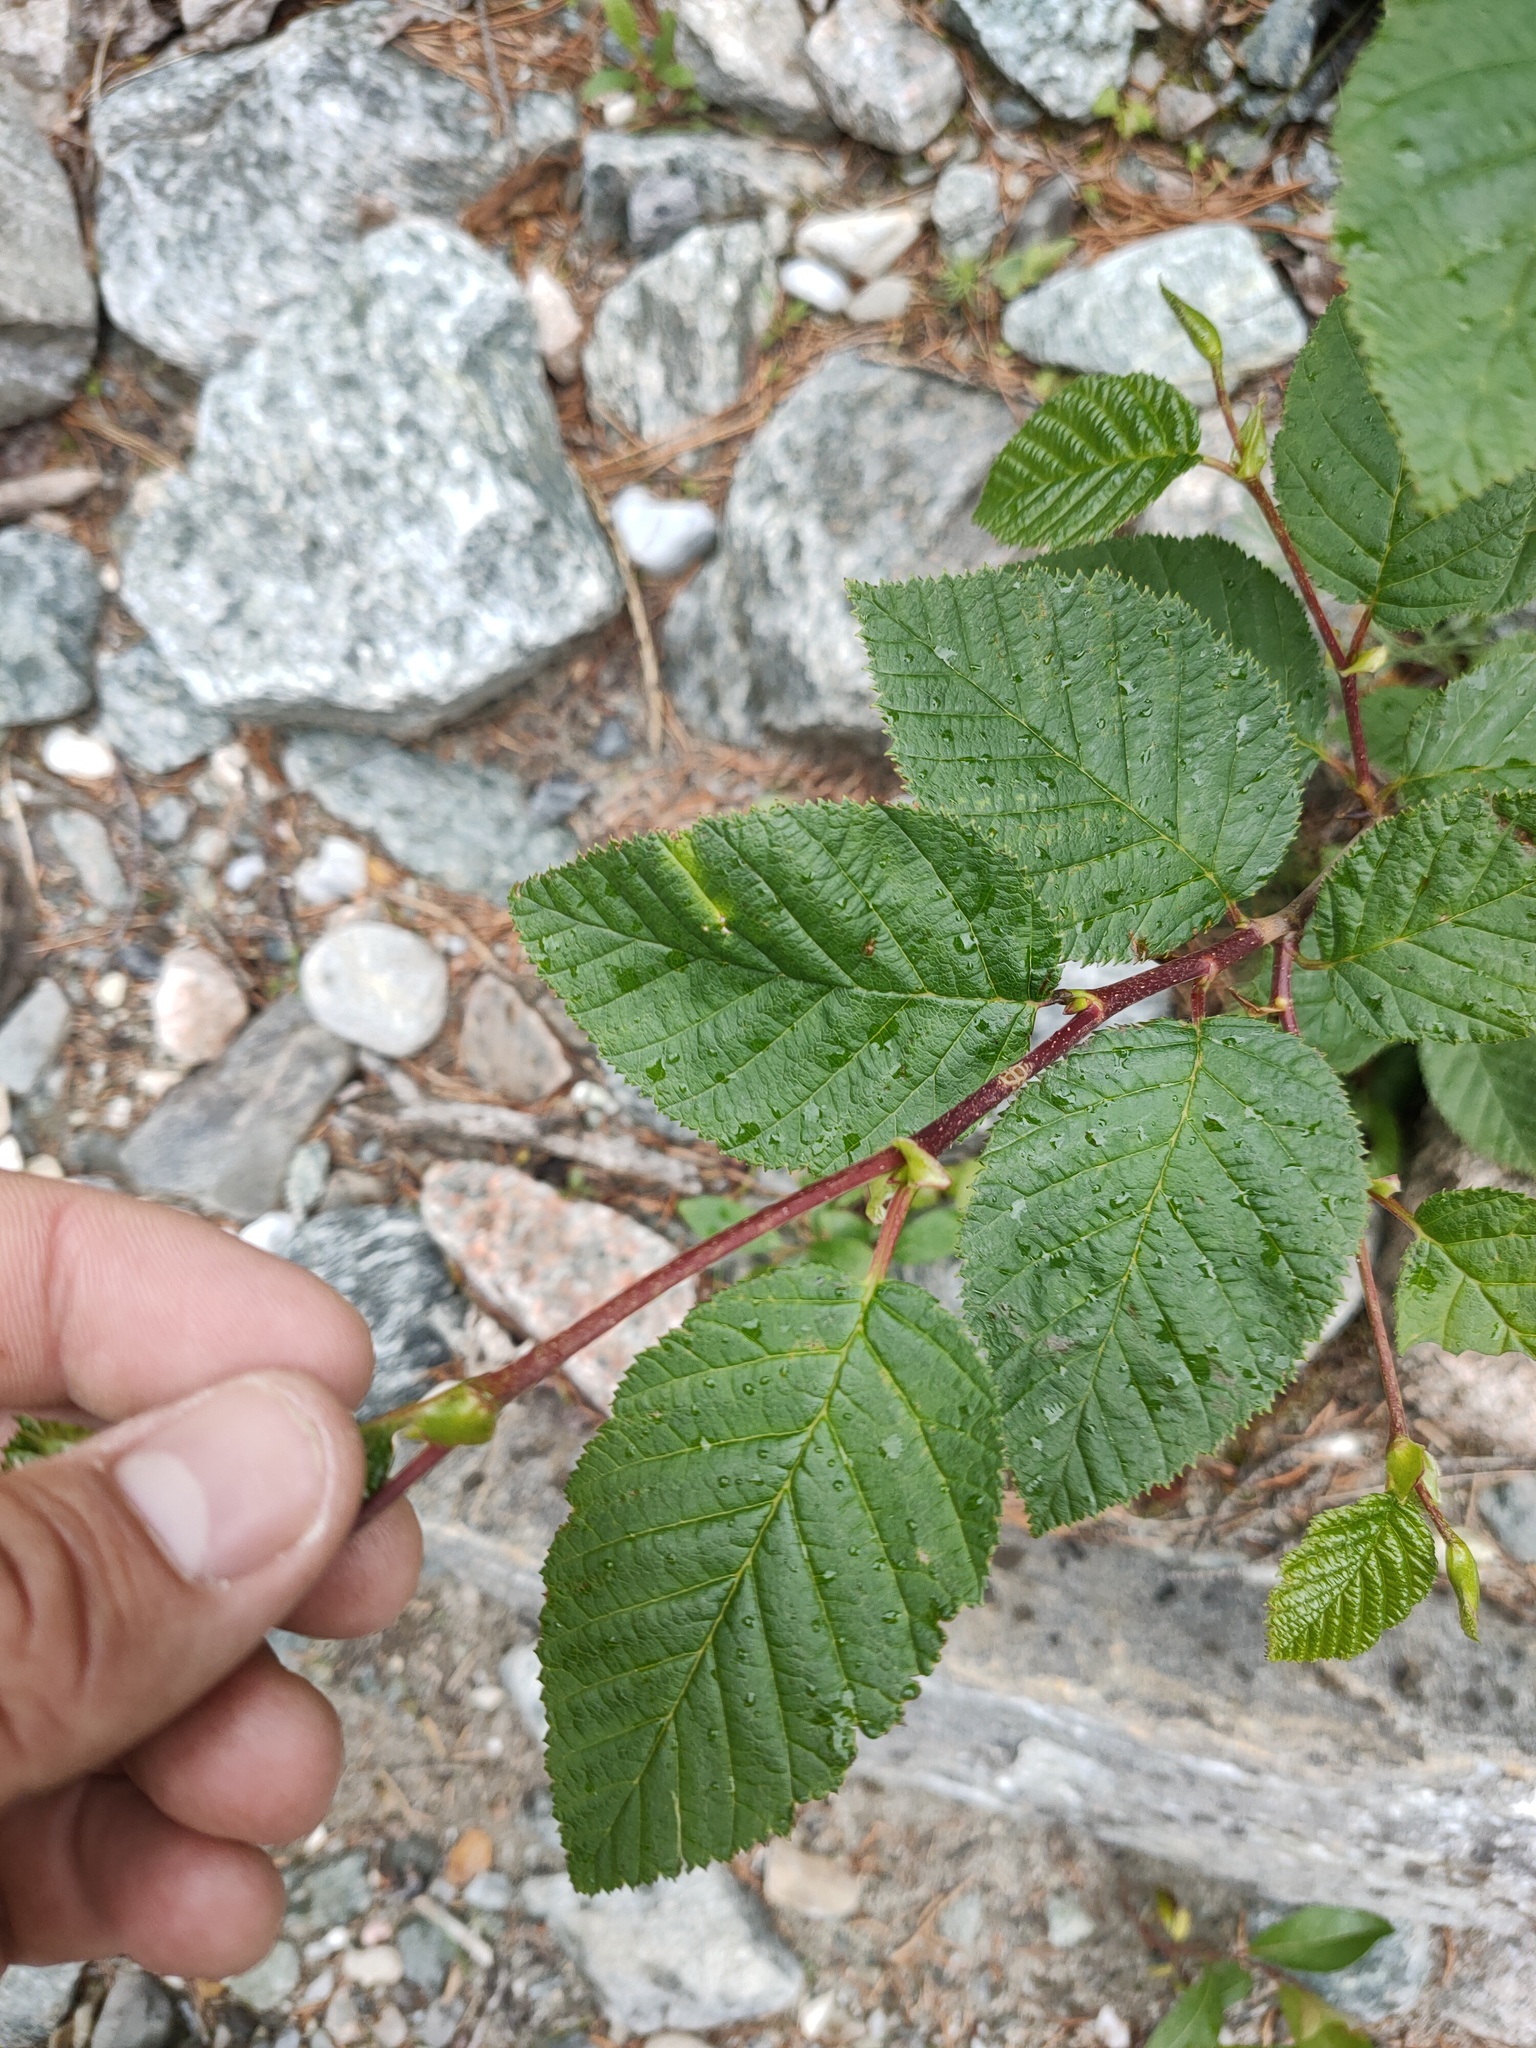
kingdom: Plantae
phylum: Tracheophyta
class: Magnoliopsida
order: Fagales
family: Betulaceae
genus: Alnus
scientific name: Alnus alnobetula
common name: Green alder
